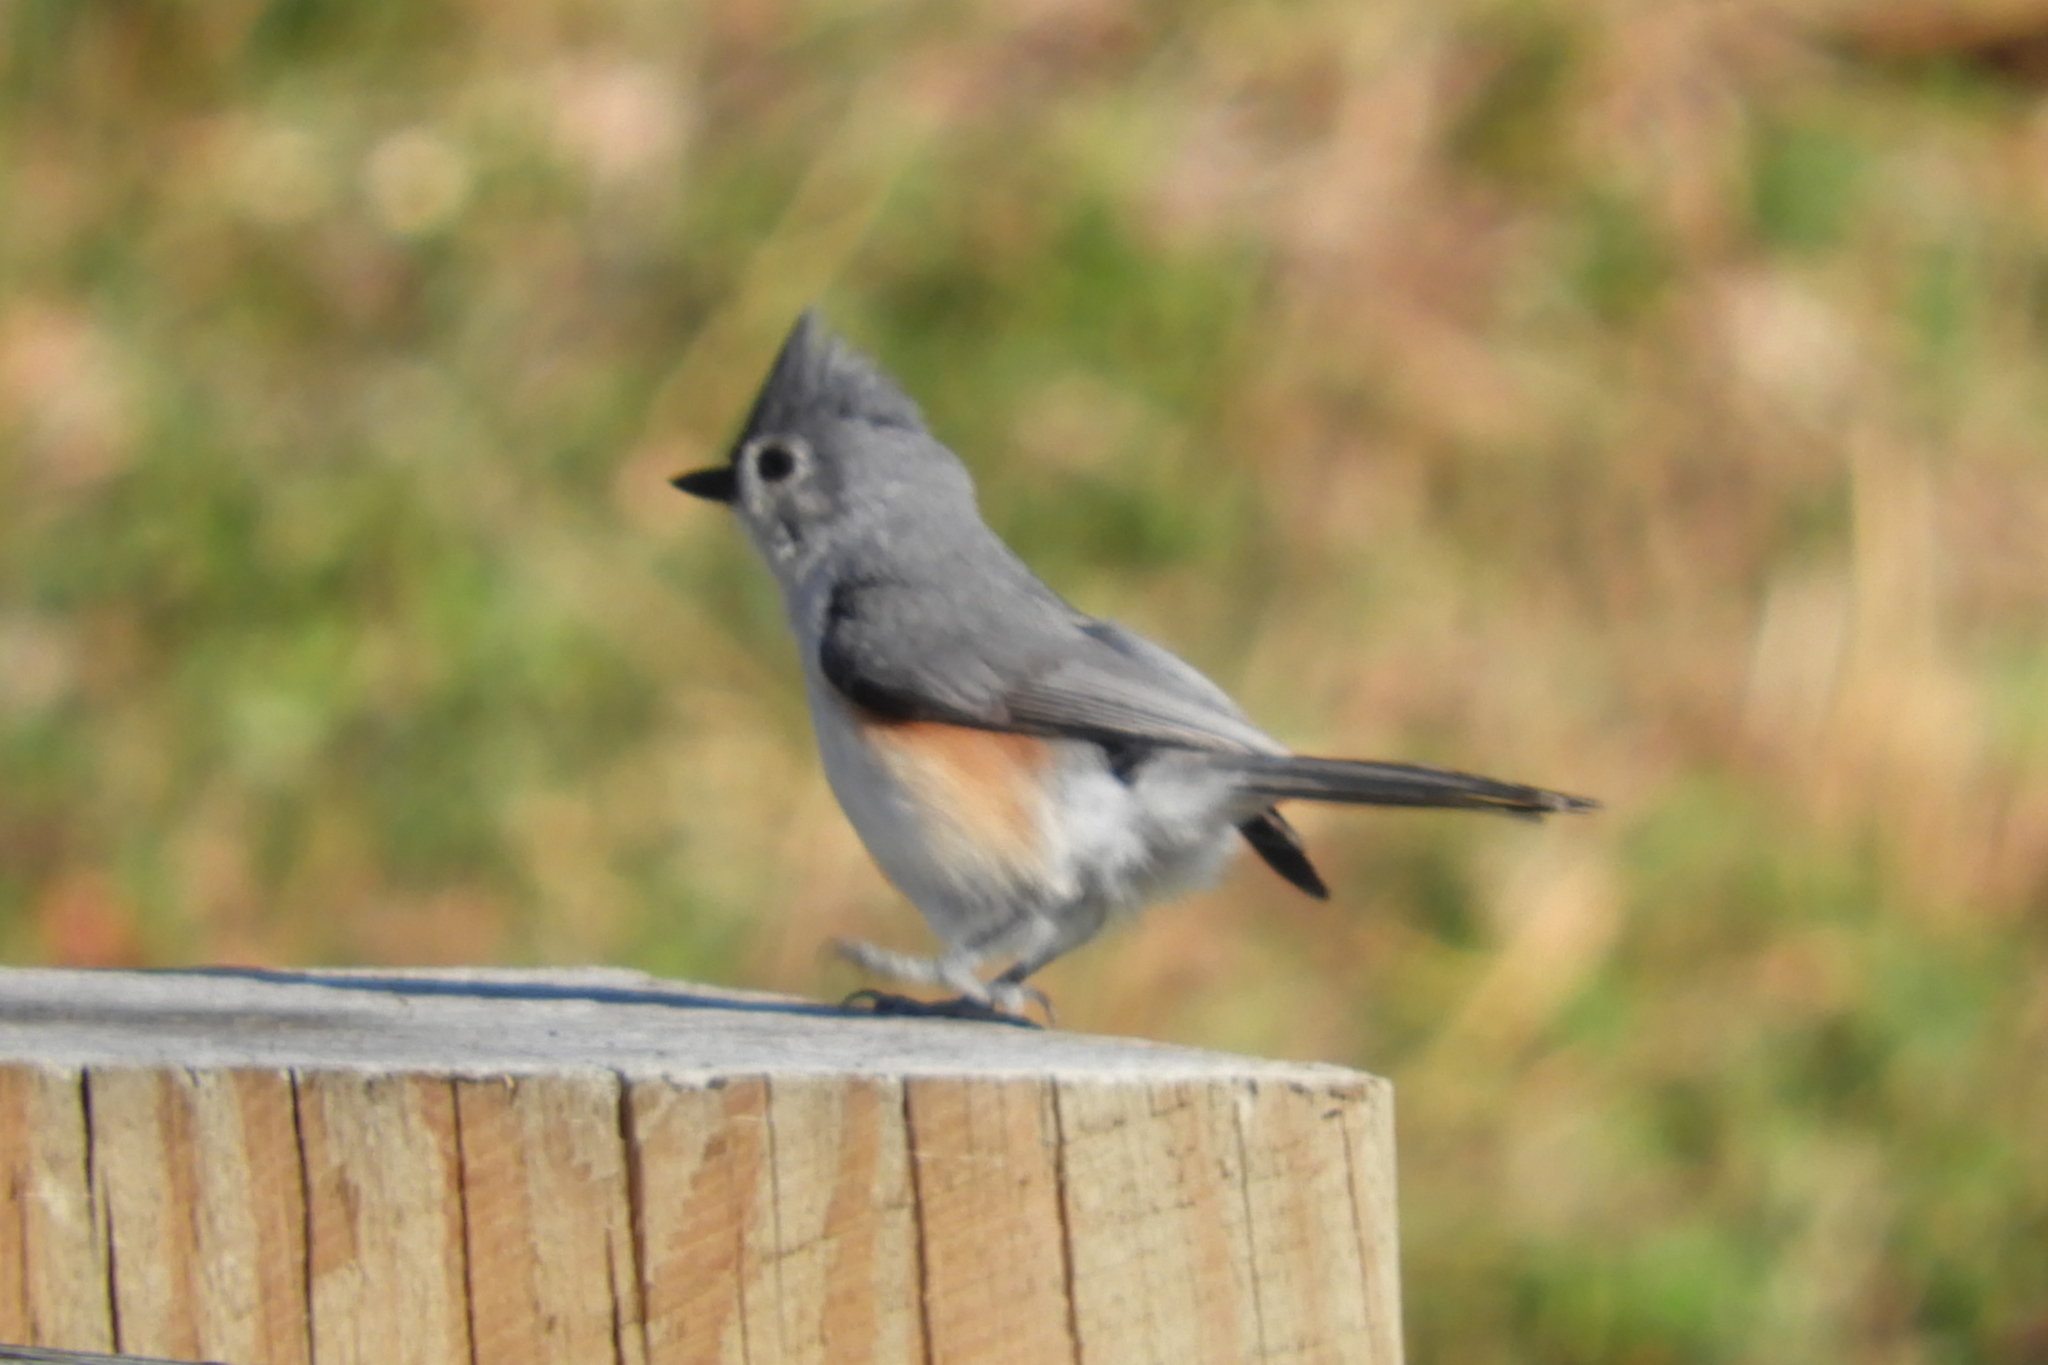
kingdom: Animalia
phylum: Chordata
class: Aves
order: Passeriformes
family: Paridae
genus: Baeolophus
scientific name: Baeolophus bicolor
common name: Tufted titmouse
